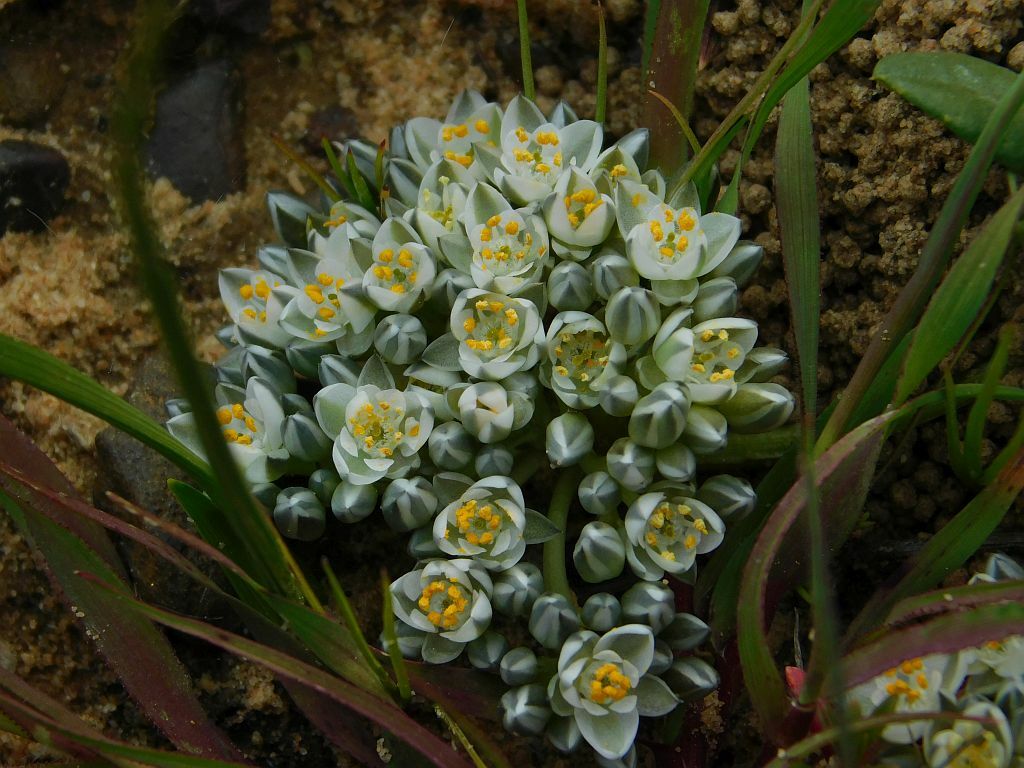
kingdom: Plantae
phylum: Tracheophyta
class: Magnoliopsida
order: Caryophyllales
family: Limeaceae
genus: Limeum
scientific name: Limeum africanum
